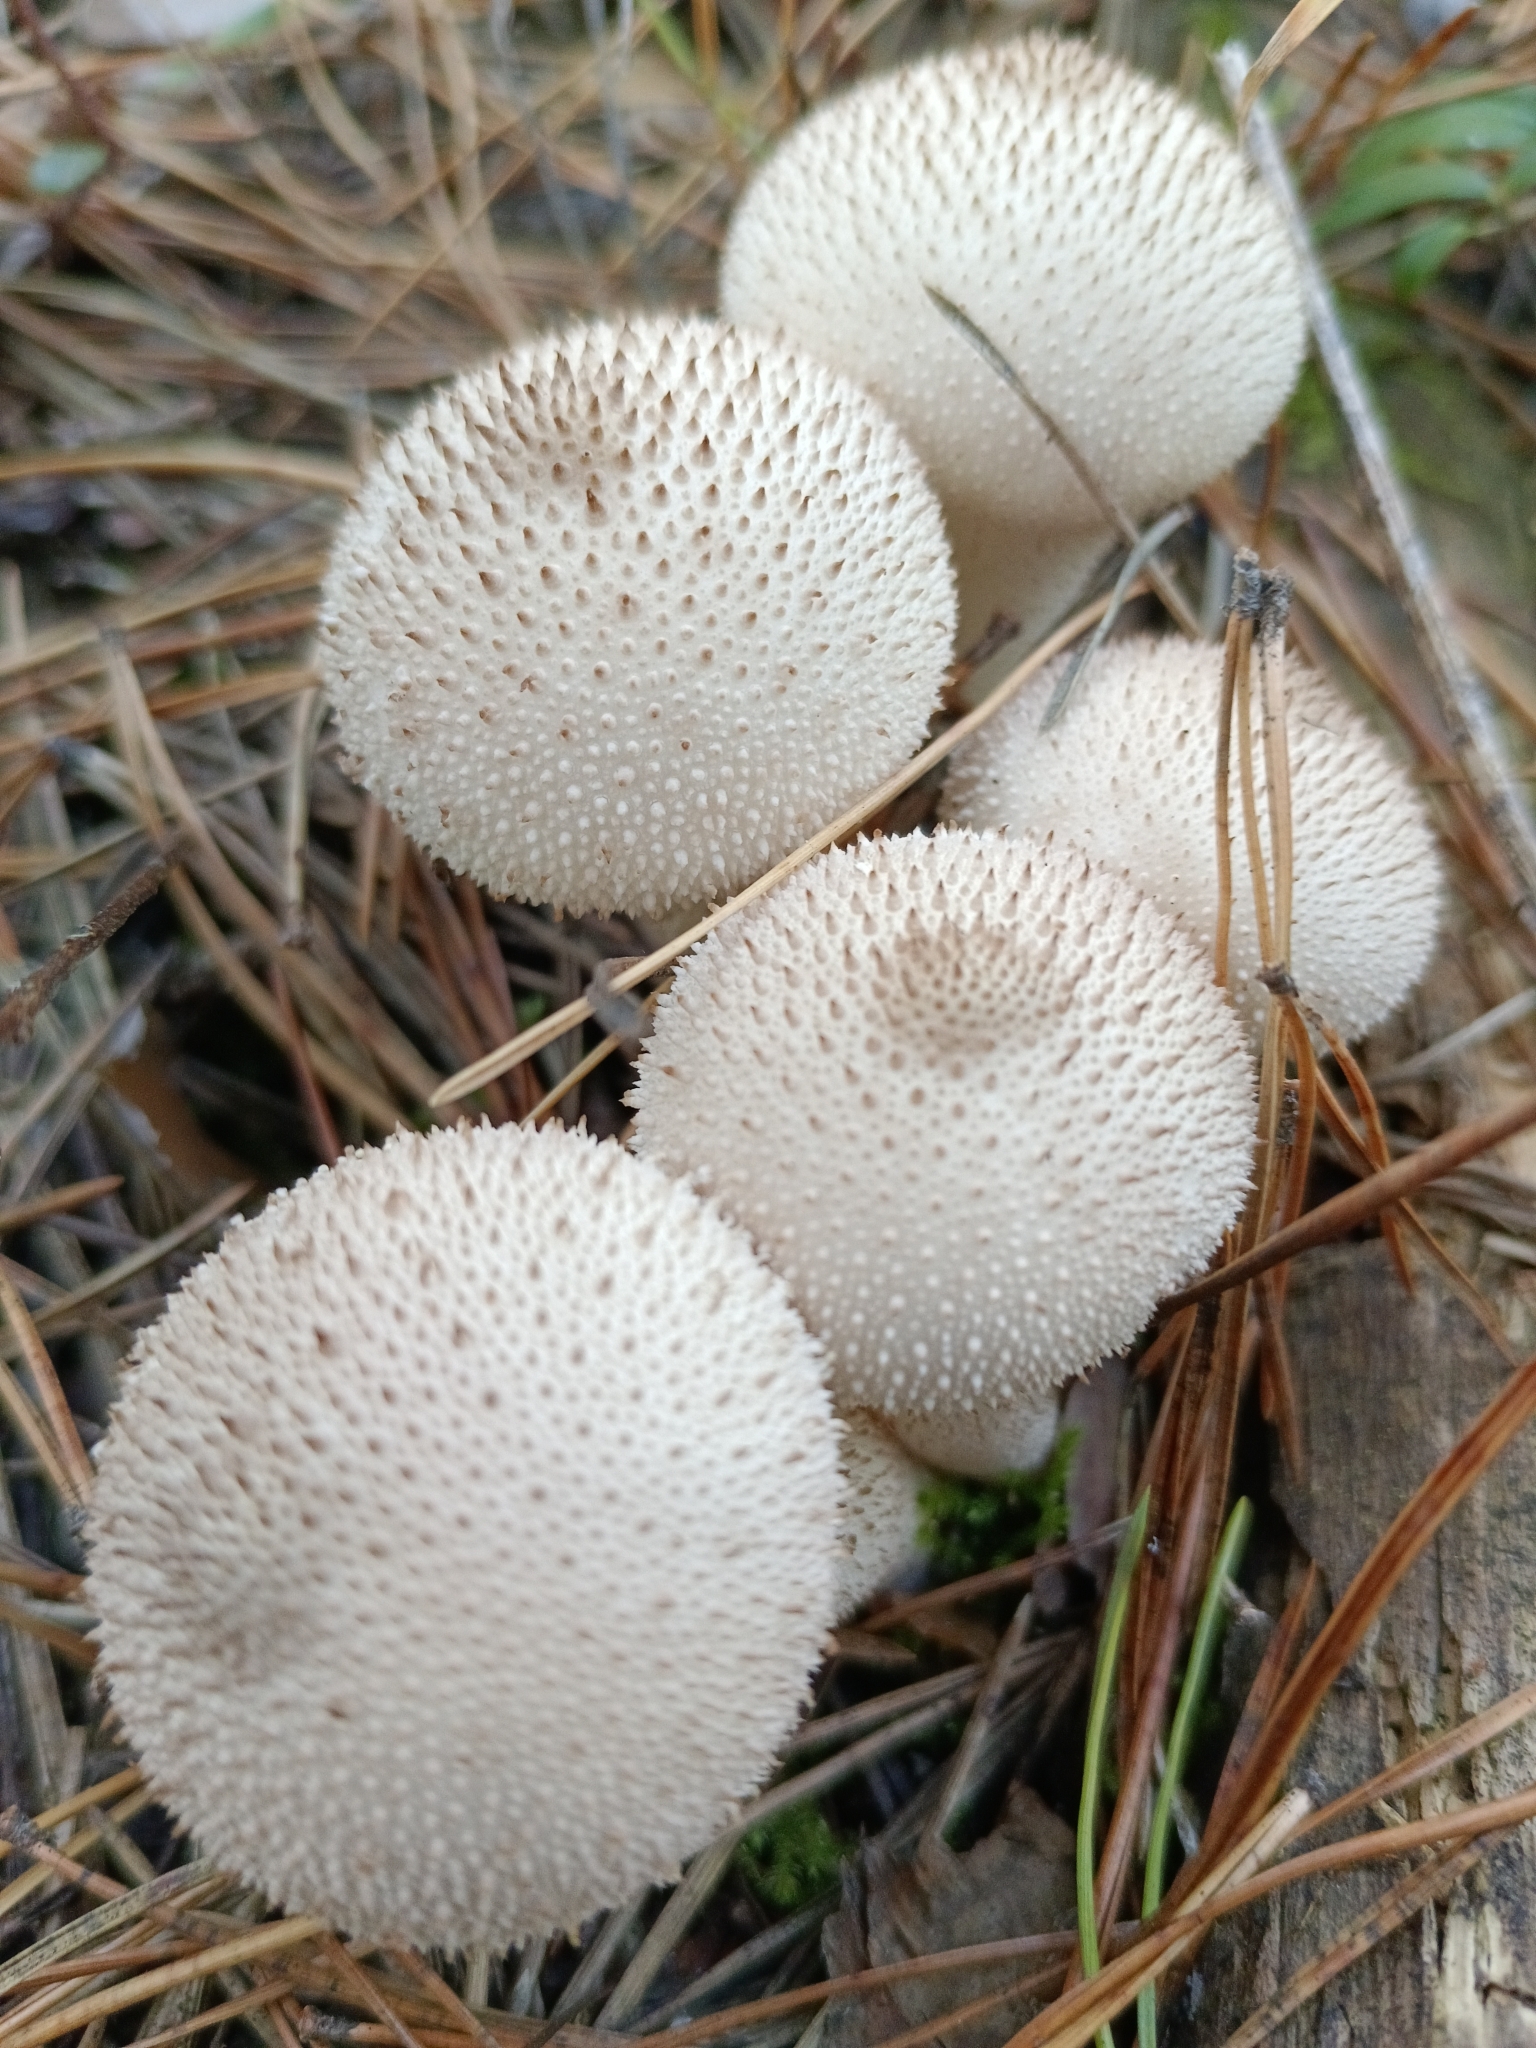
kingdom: Fungi
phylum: Basidiomycota
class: Agaricomycetes
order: Agaricales
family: Lycoperdaceae
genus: Lycoperdon
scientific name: Lycoperdon perlatum
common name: Common puffball
